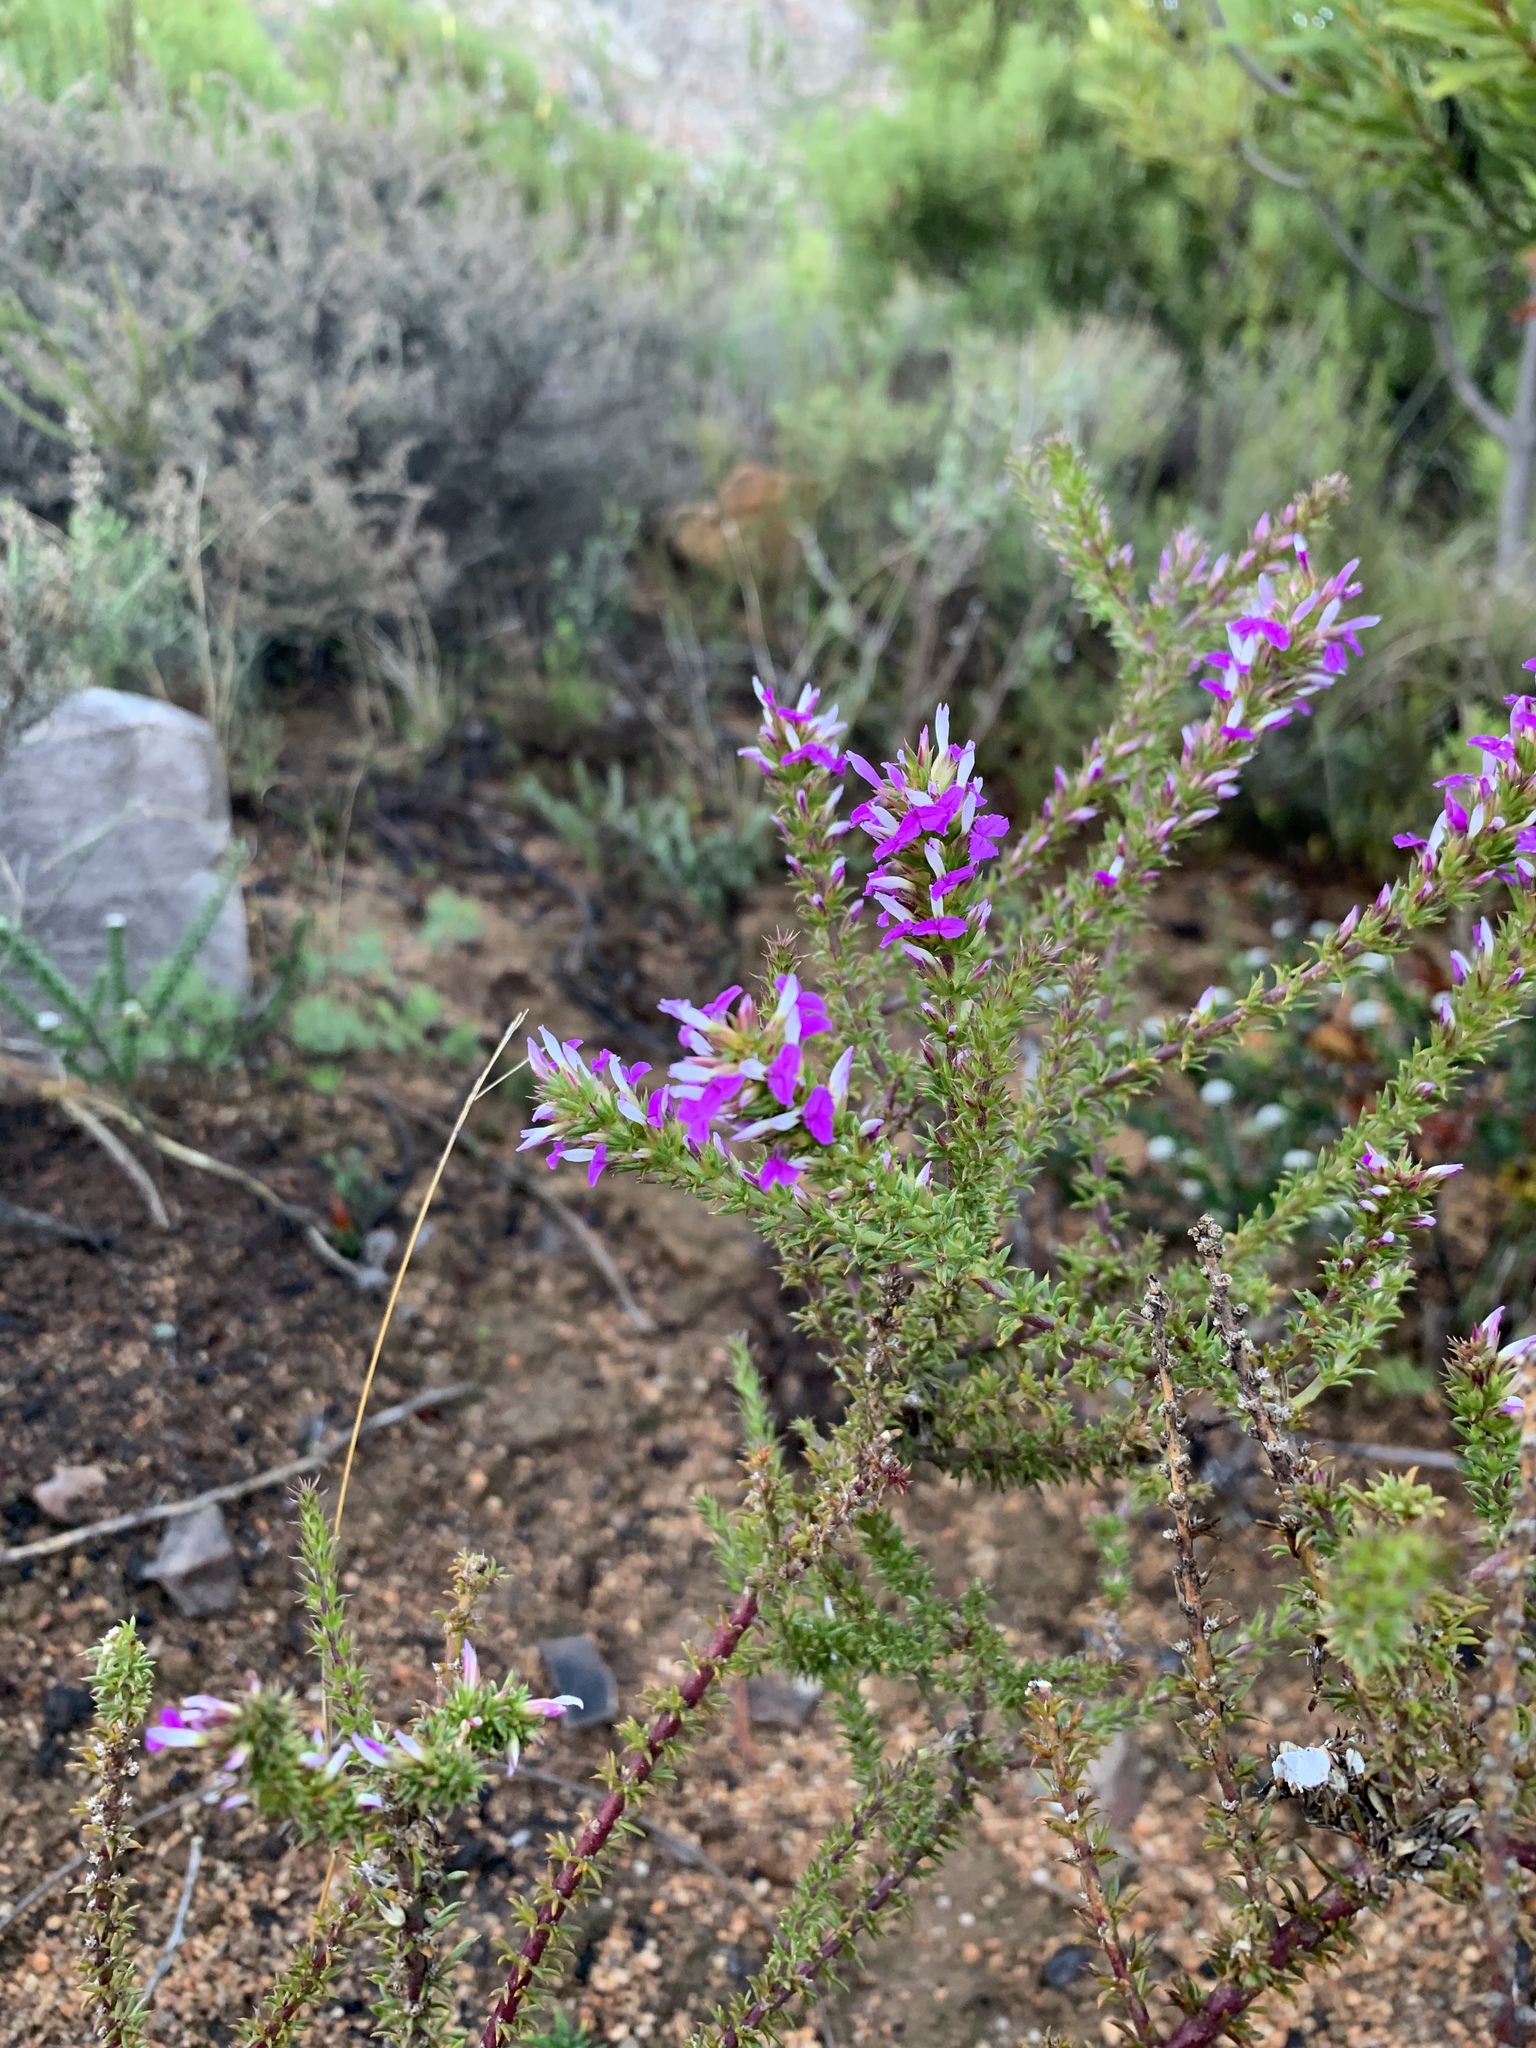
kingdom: Plantae
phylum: Tracheophyta
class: Magnoliopsida
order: Fabales
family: Polygalaceae
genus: Muraltia
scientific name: Muraltia heisteria
